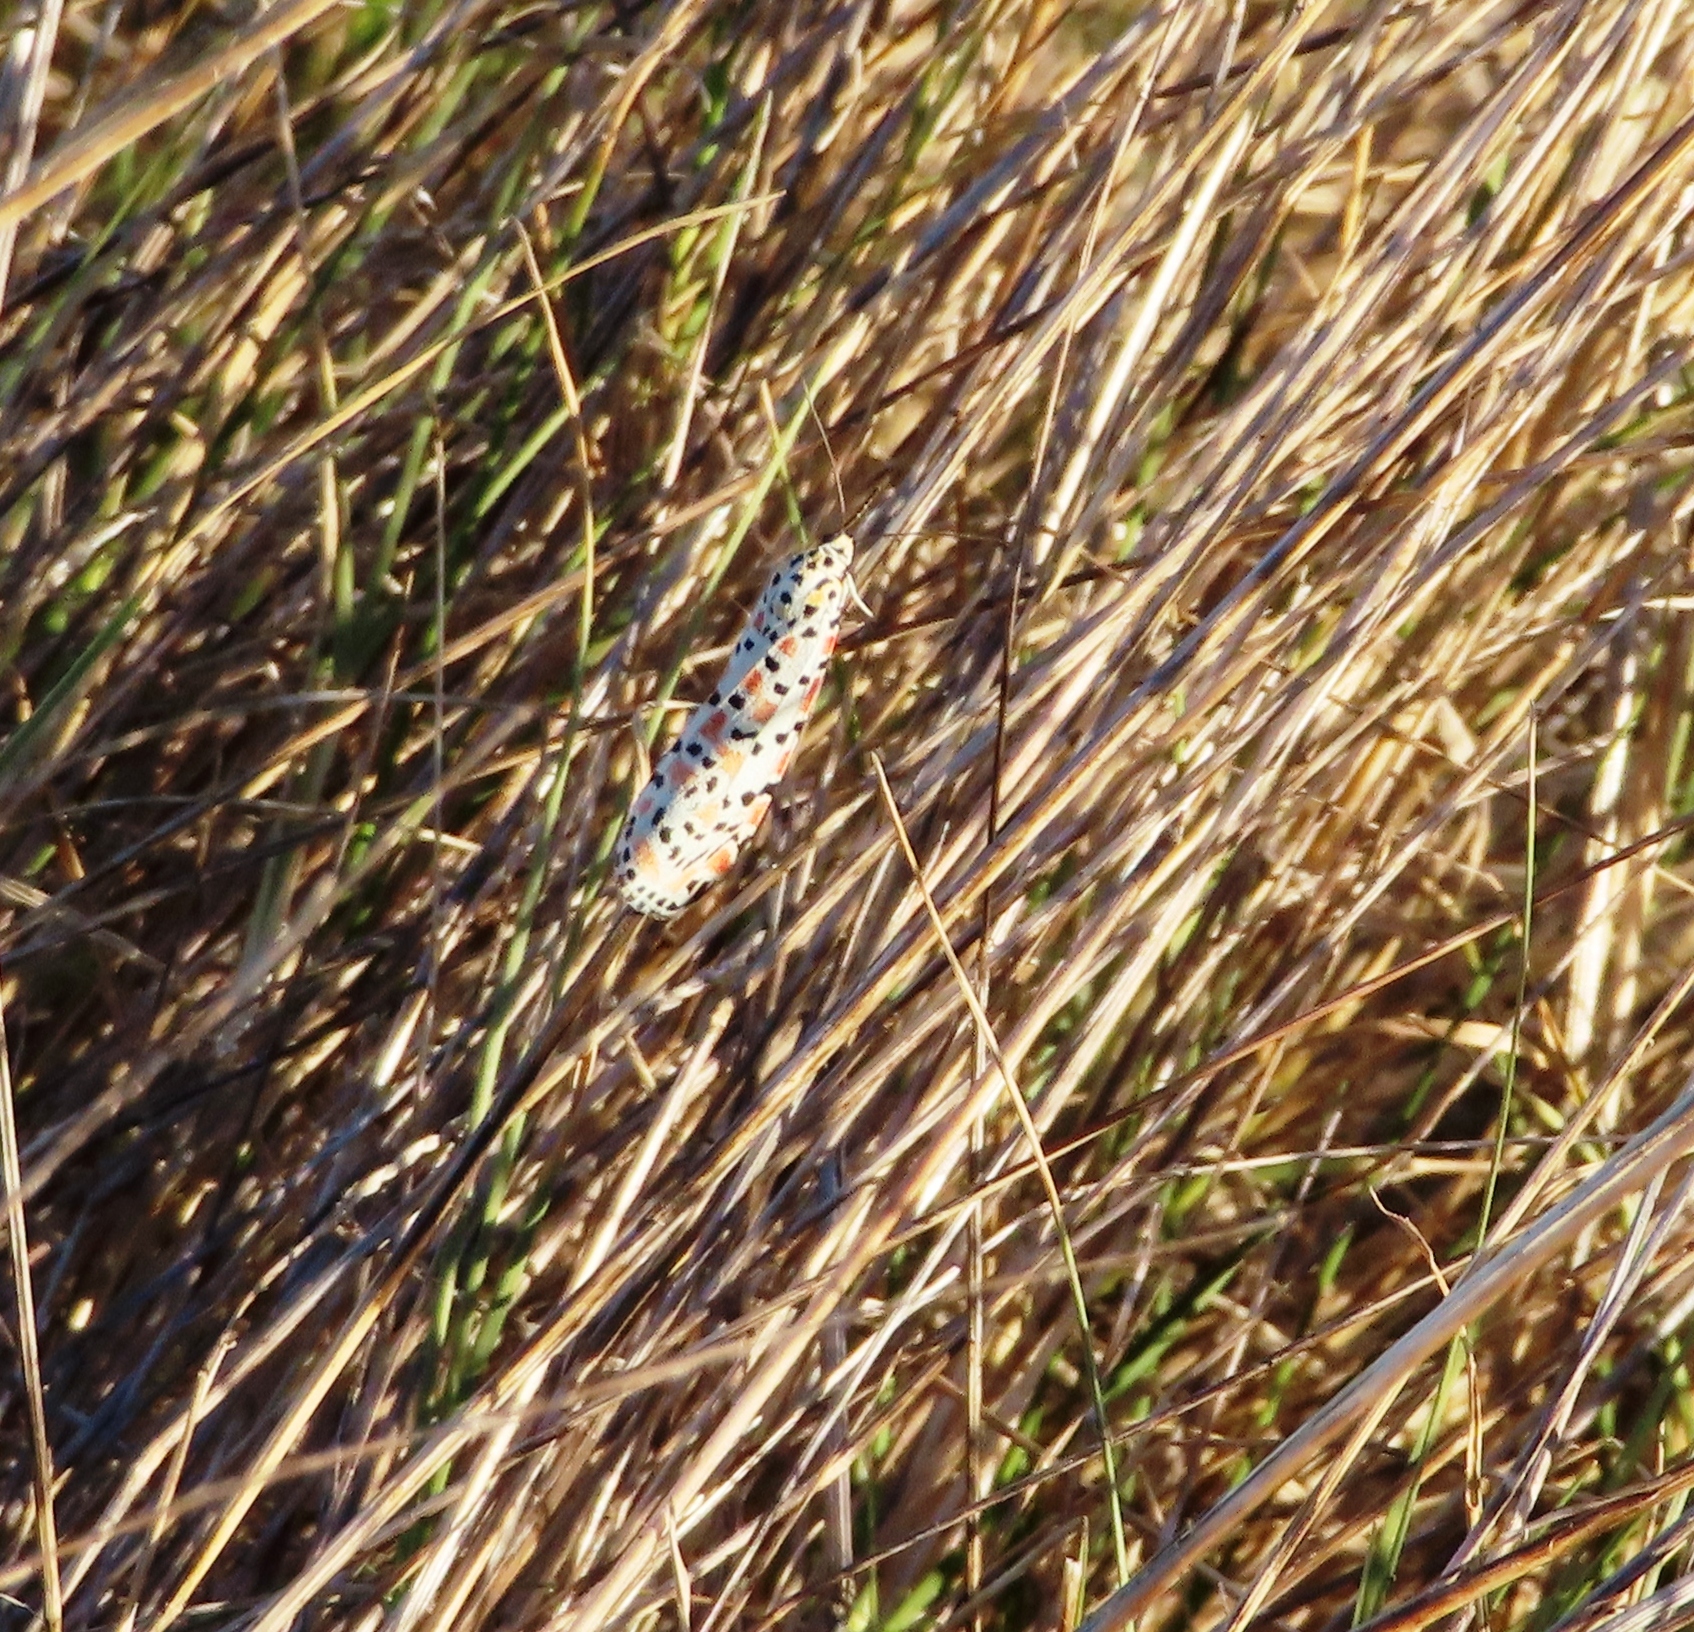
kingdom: Animalia
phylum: Arthropoda
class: Insecta
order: Lepidoptera
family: Erebidae
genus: Utetheisa
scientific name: Utetheisa pulchella
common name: Crimson speckled
